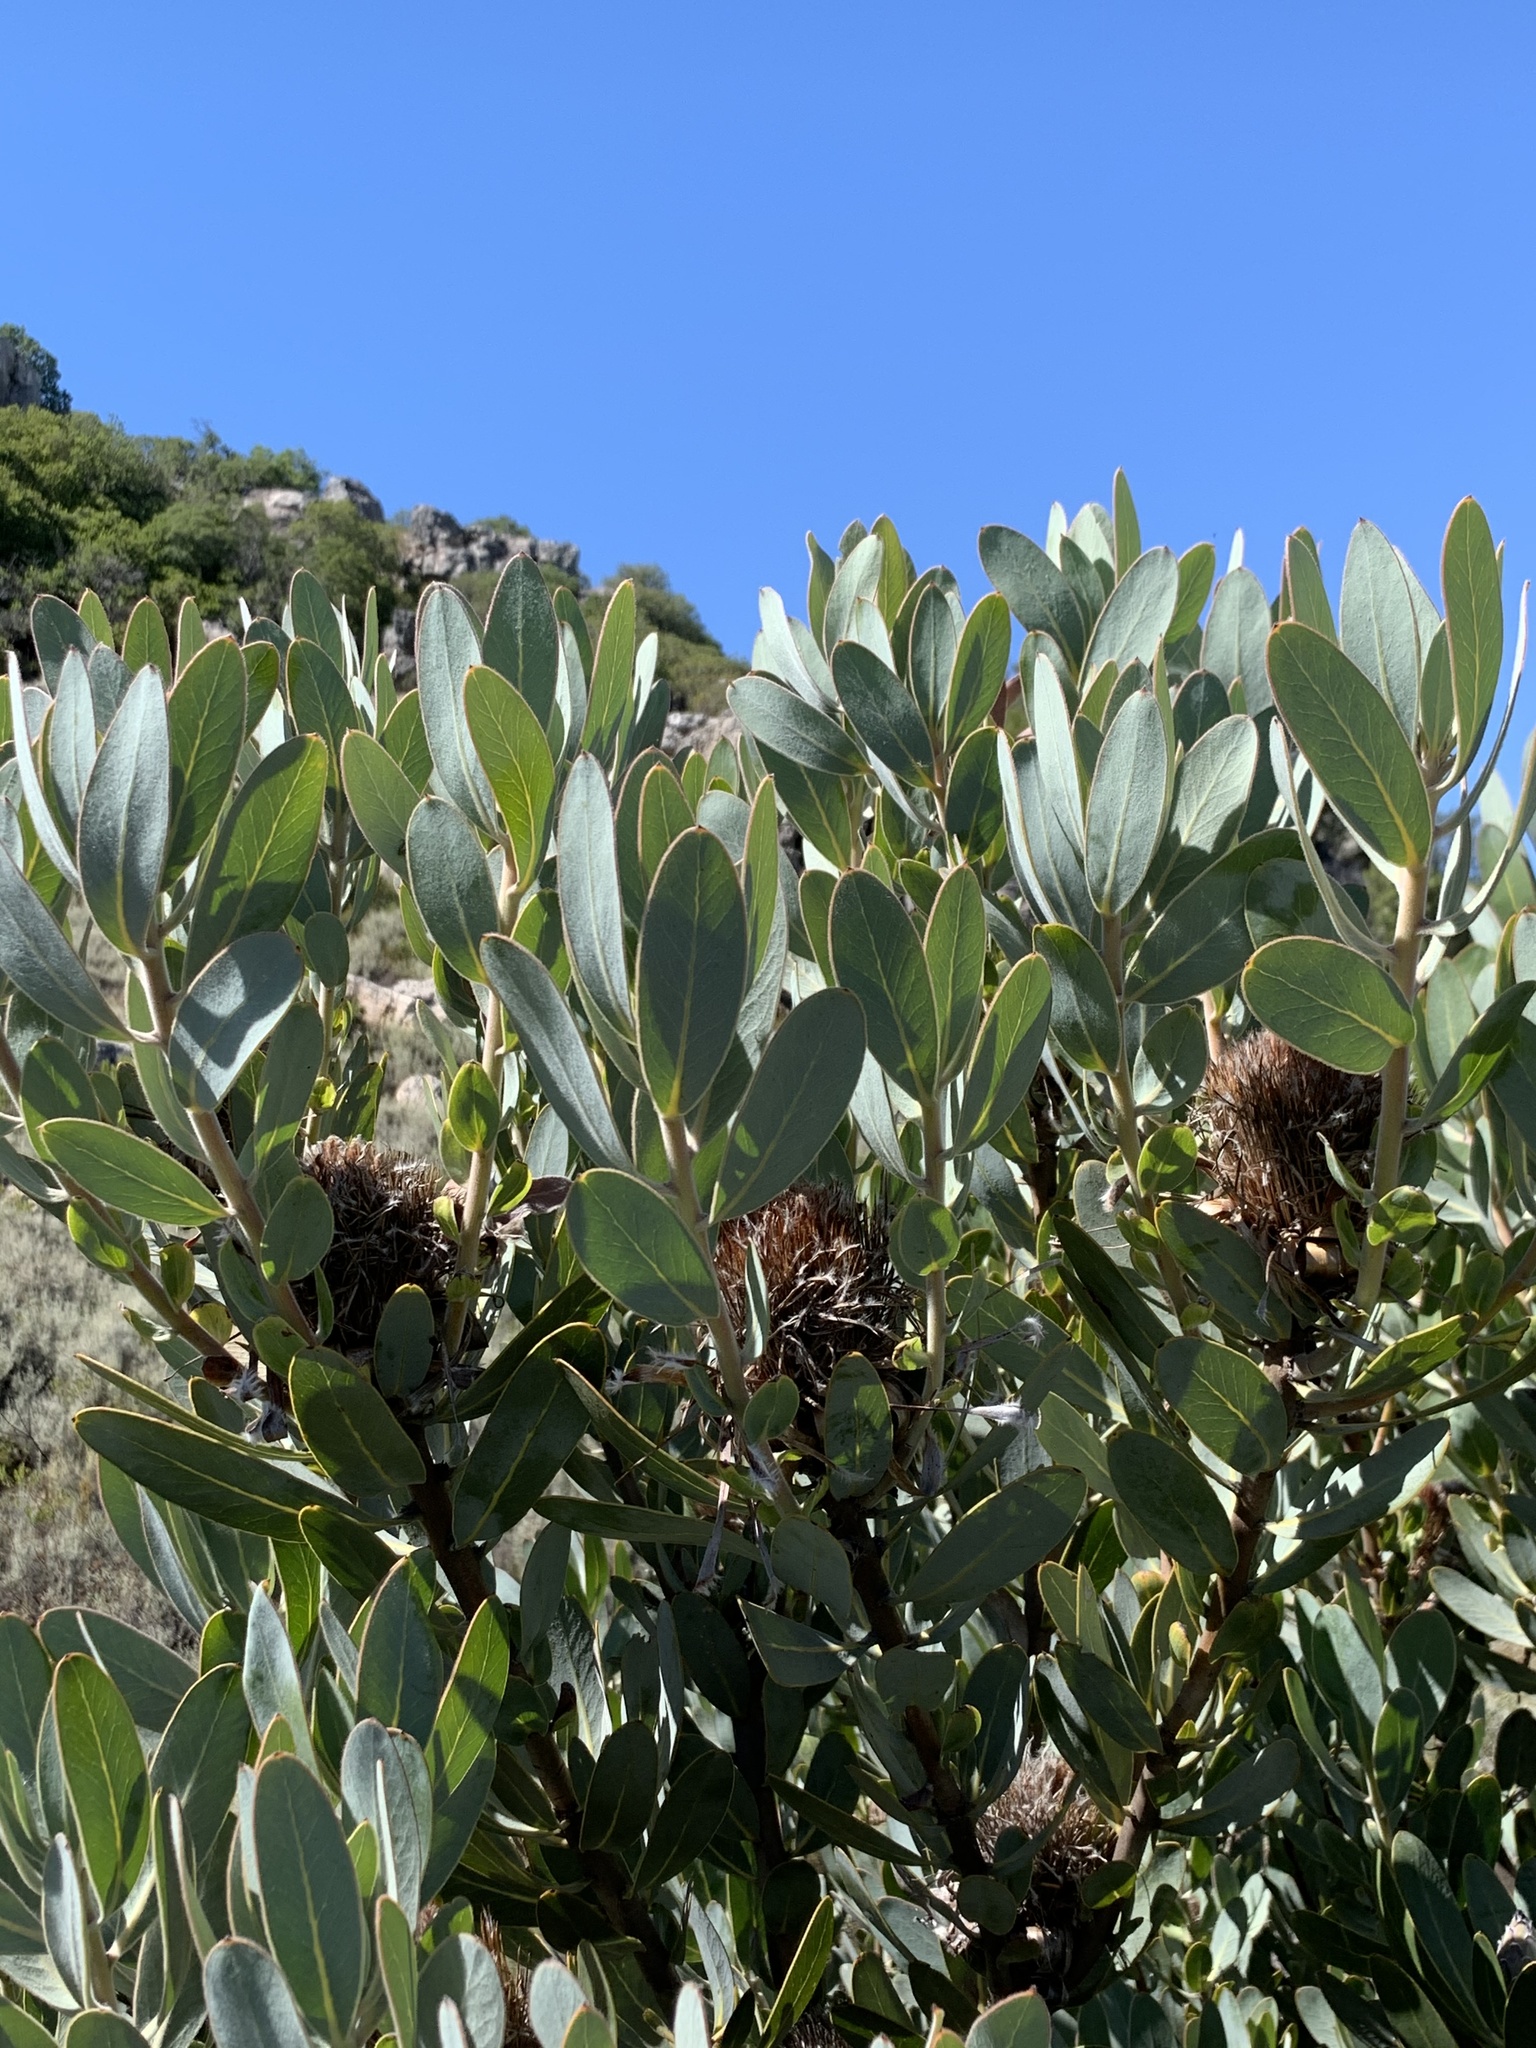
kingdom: Plantae
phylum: Tracheophyta
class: Magnoliopsida
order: Proteales
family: Proteaceae
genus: Protea
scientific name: Protea laurifolia
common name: Grey-leaf sugarbsh
